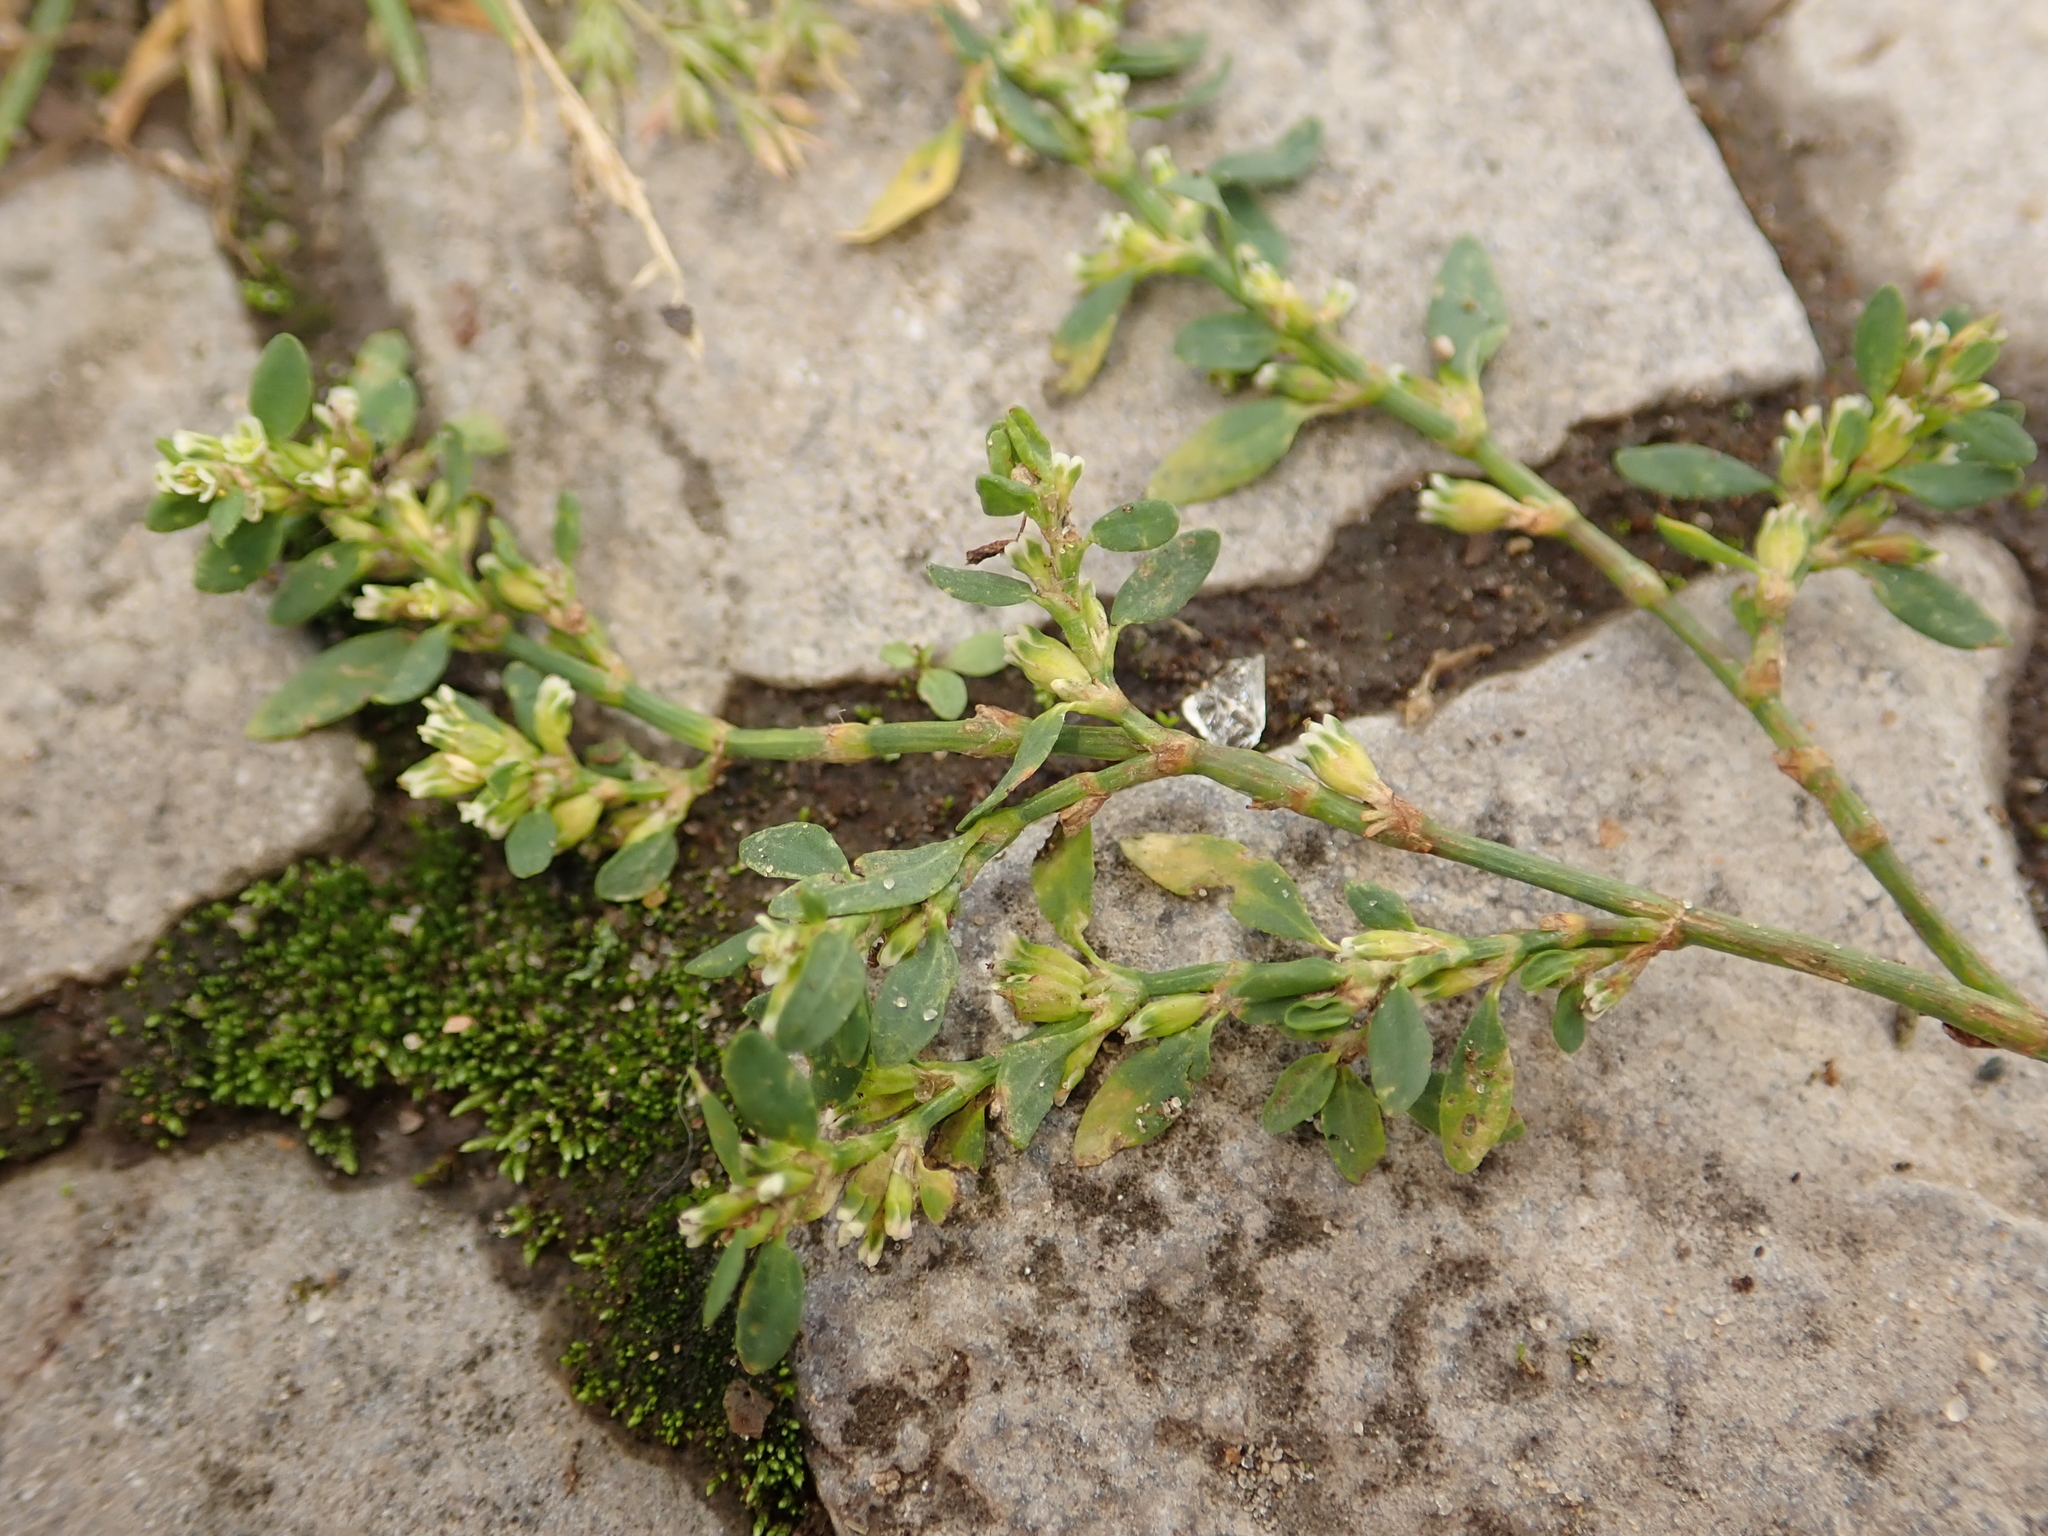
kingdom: Plantae
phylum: Tracheophyta
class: Magnoliopsida
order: Caryophyllales
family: Polygonaceae
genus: Polygonum
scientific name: Polygonum arenastrum
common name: Equal-leaved knotgrass
